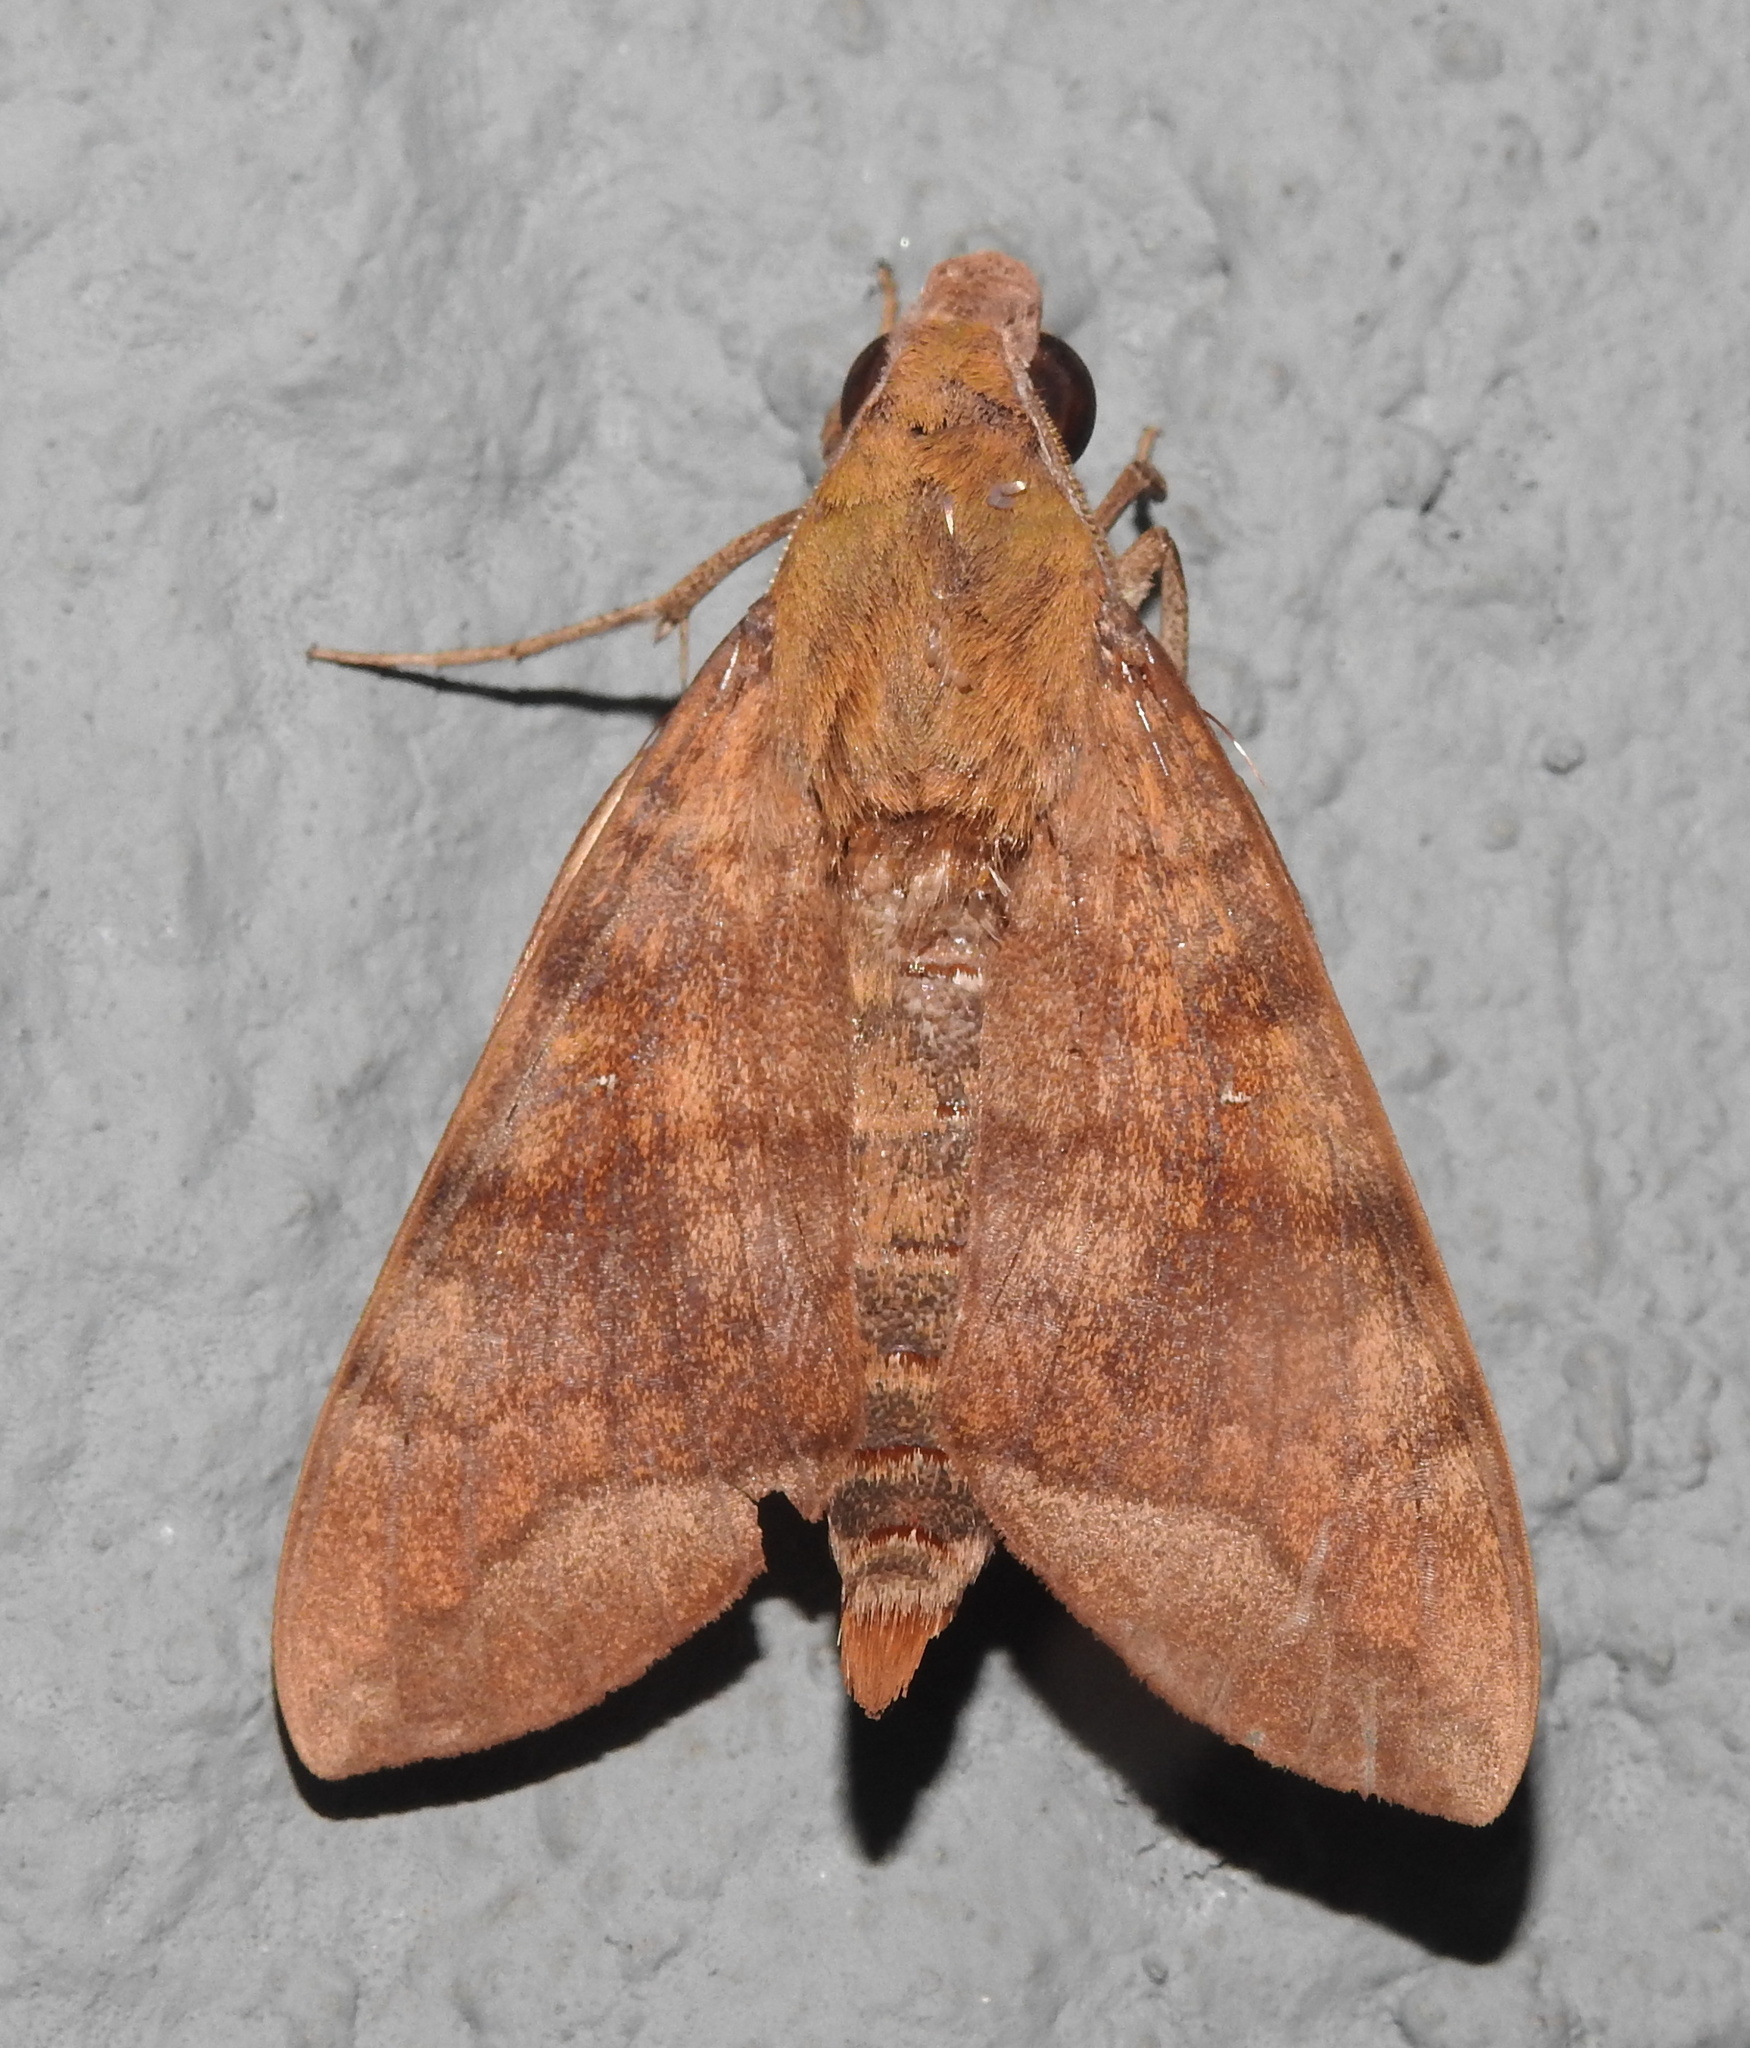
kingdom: Animalia
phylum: Arthropoda
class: Insecta
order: Lepidoptera
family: Sphingidae
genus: Nephele
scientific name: Nephele hespera
